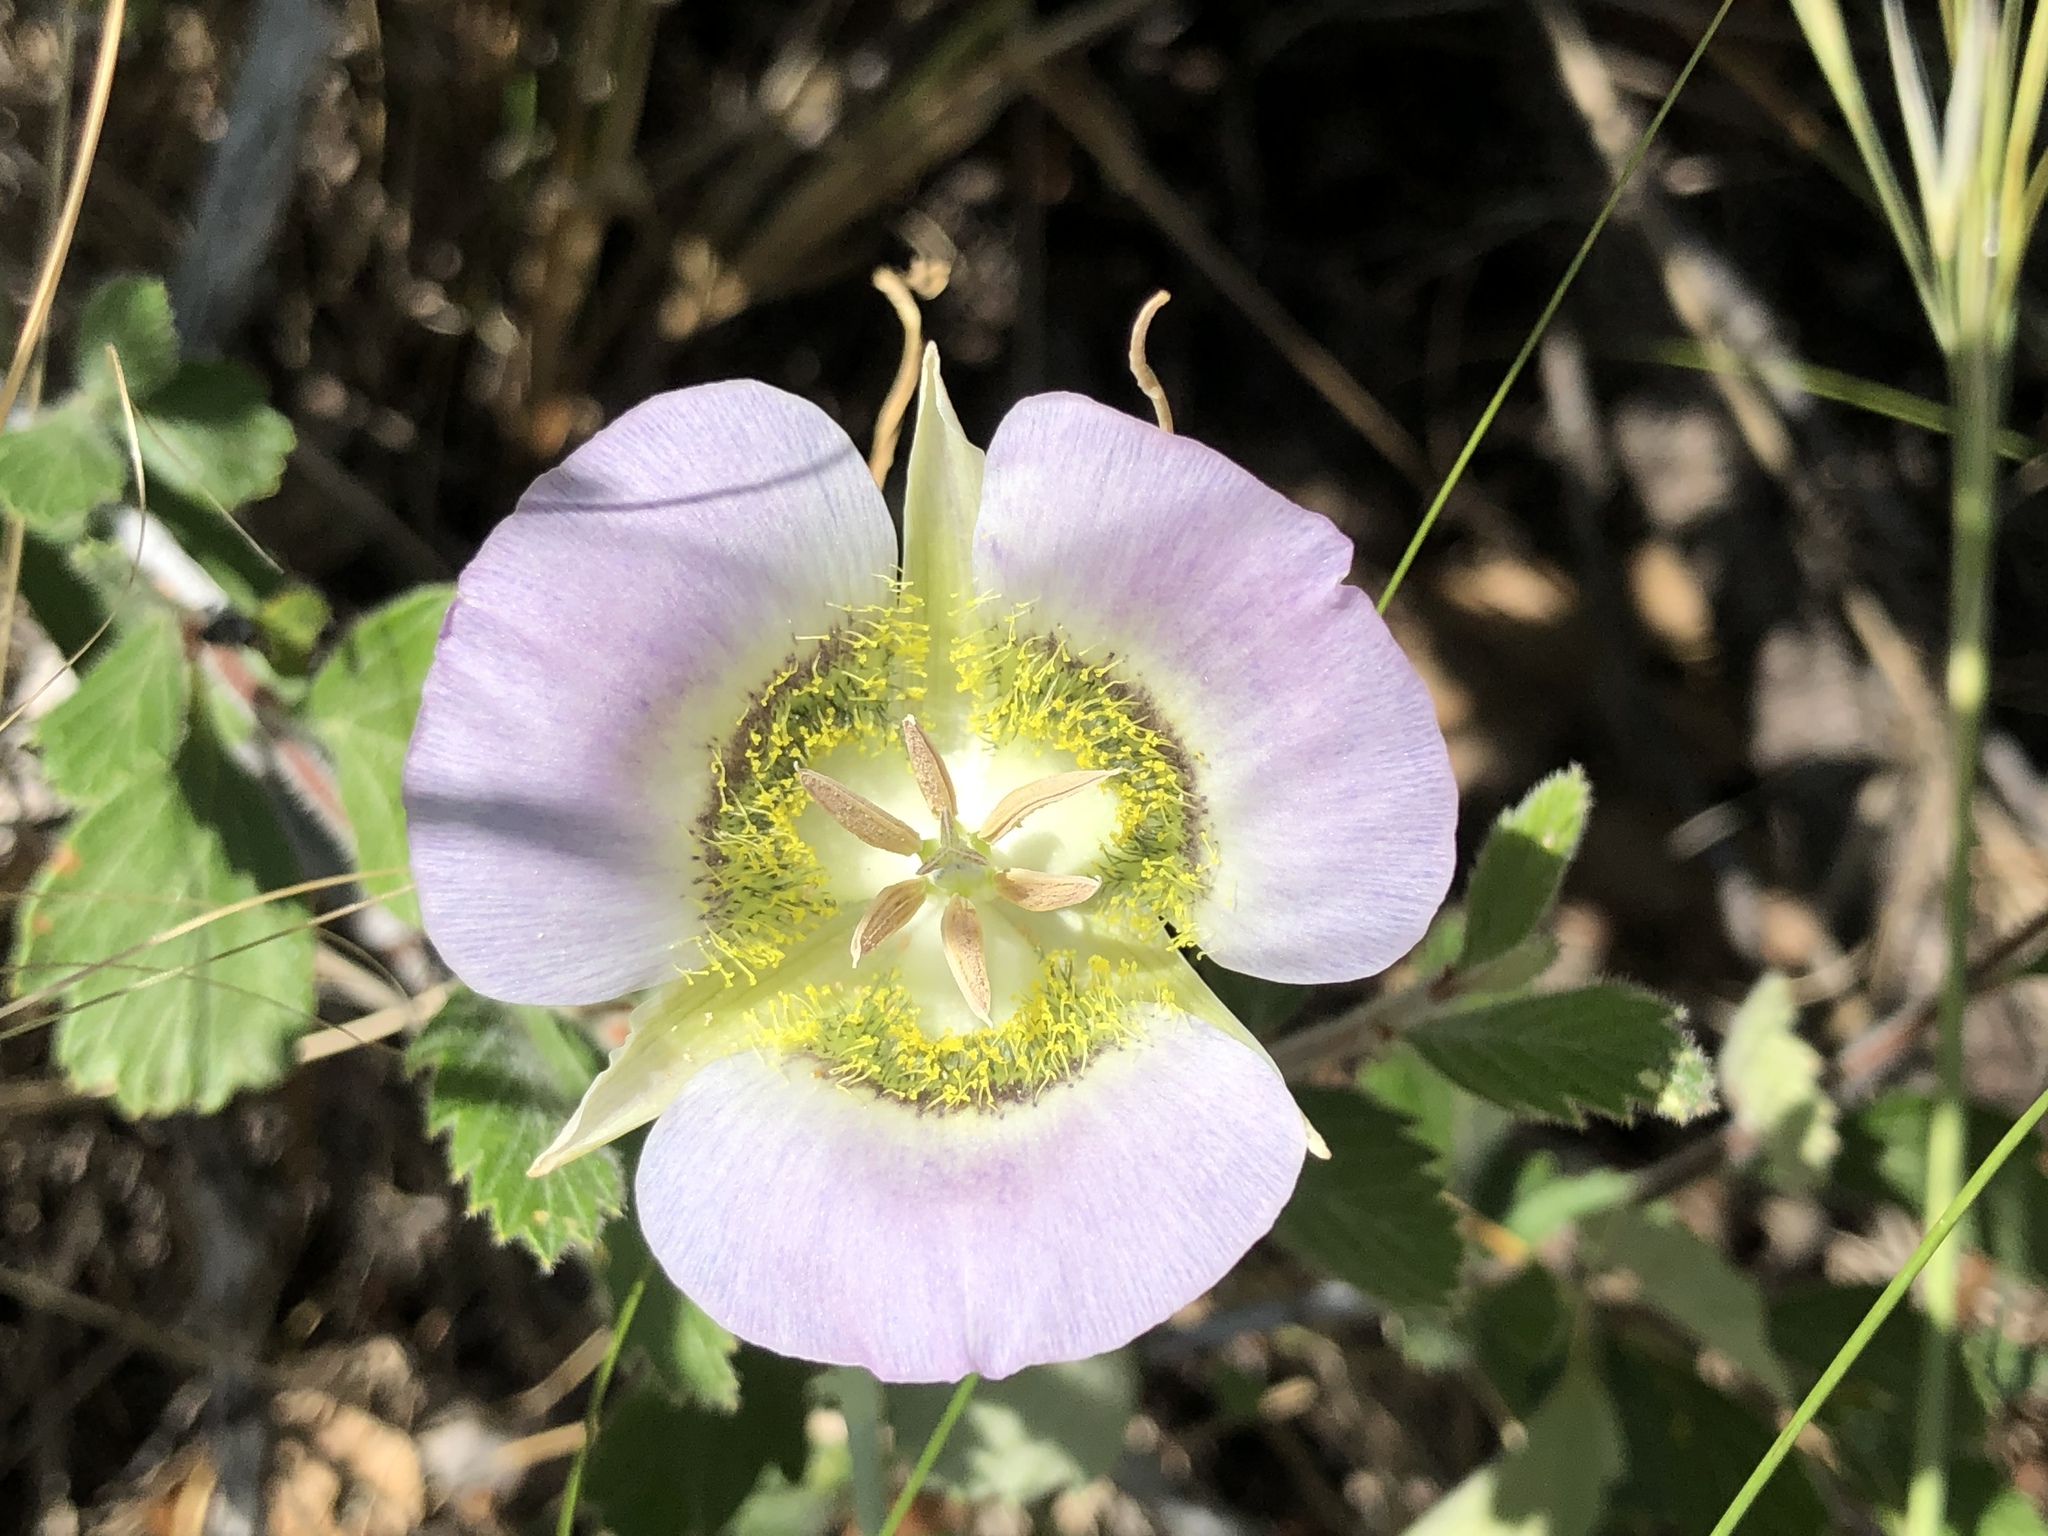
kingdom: Plantae
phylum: Tracheophyta
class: Liliopsida
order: Liliales
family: Liliaceae
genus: Calochortus
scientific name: Calochortus gunnisonii
